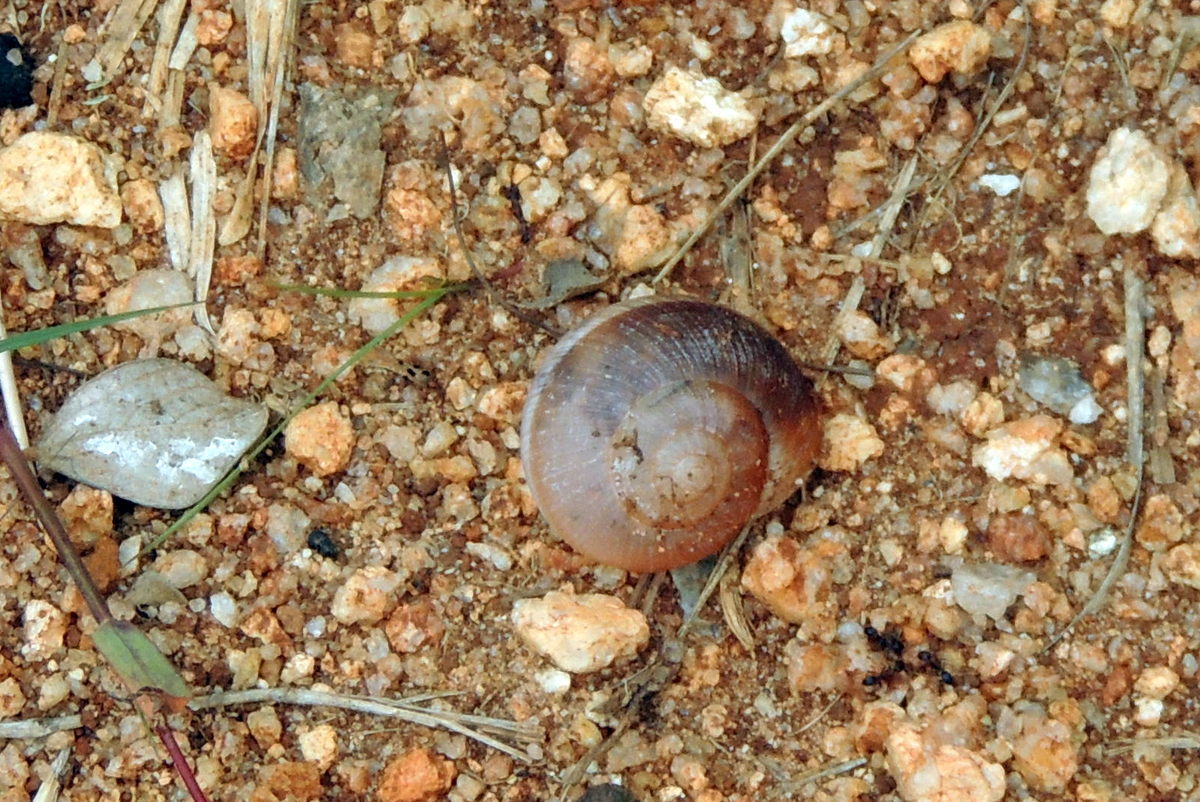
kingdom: Animalia
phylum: Mollusca
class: Gastropoda
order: Stylommatophora
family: Ariophantidae
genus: Ariophanta
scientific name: Ariophanta exilis
